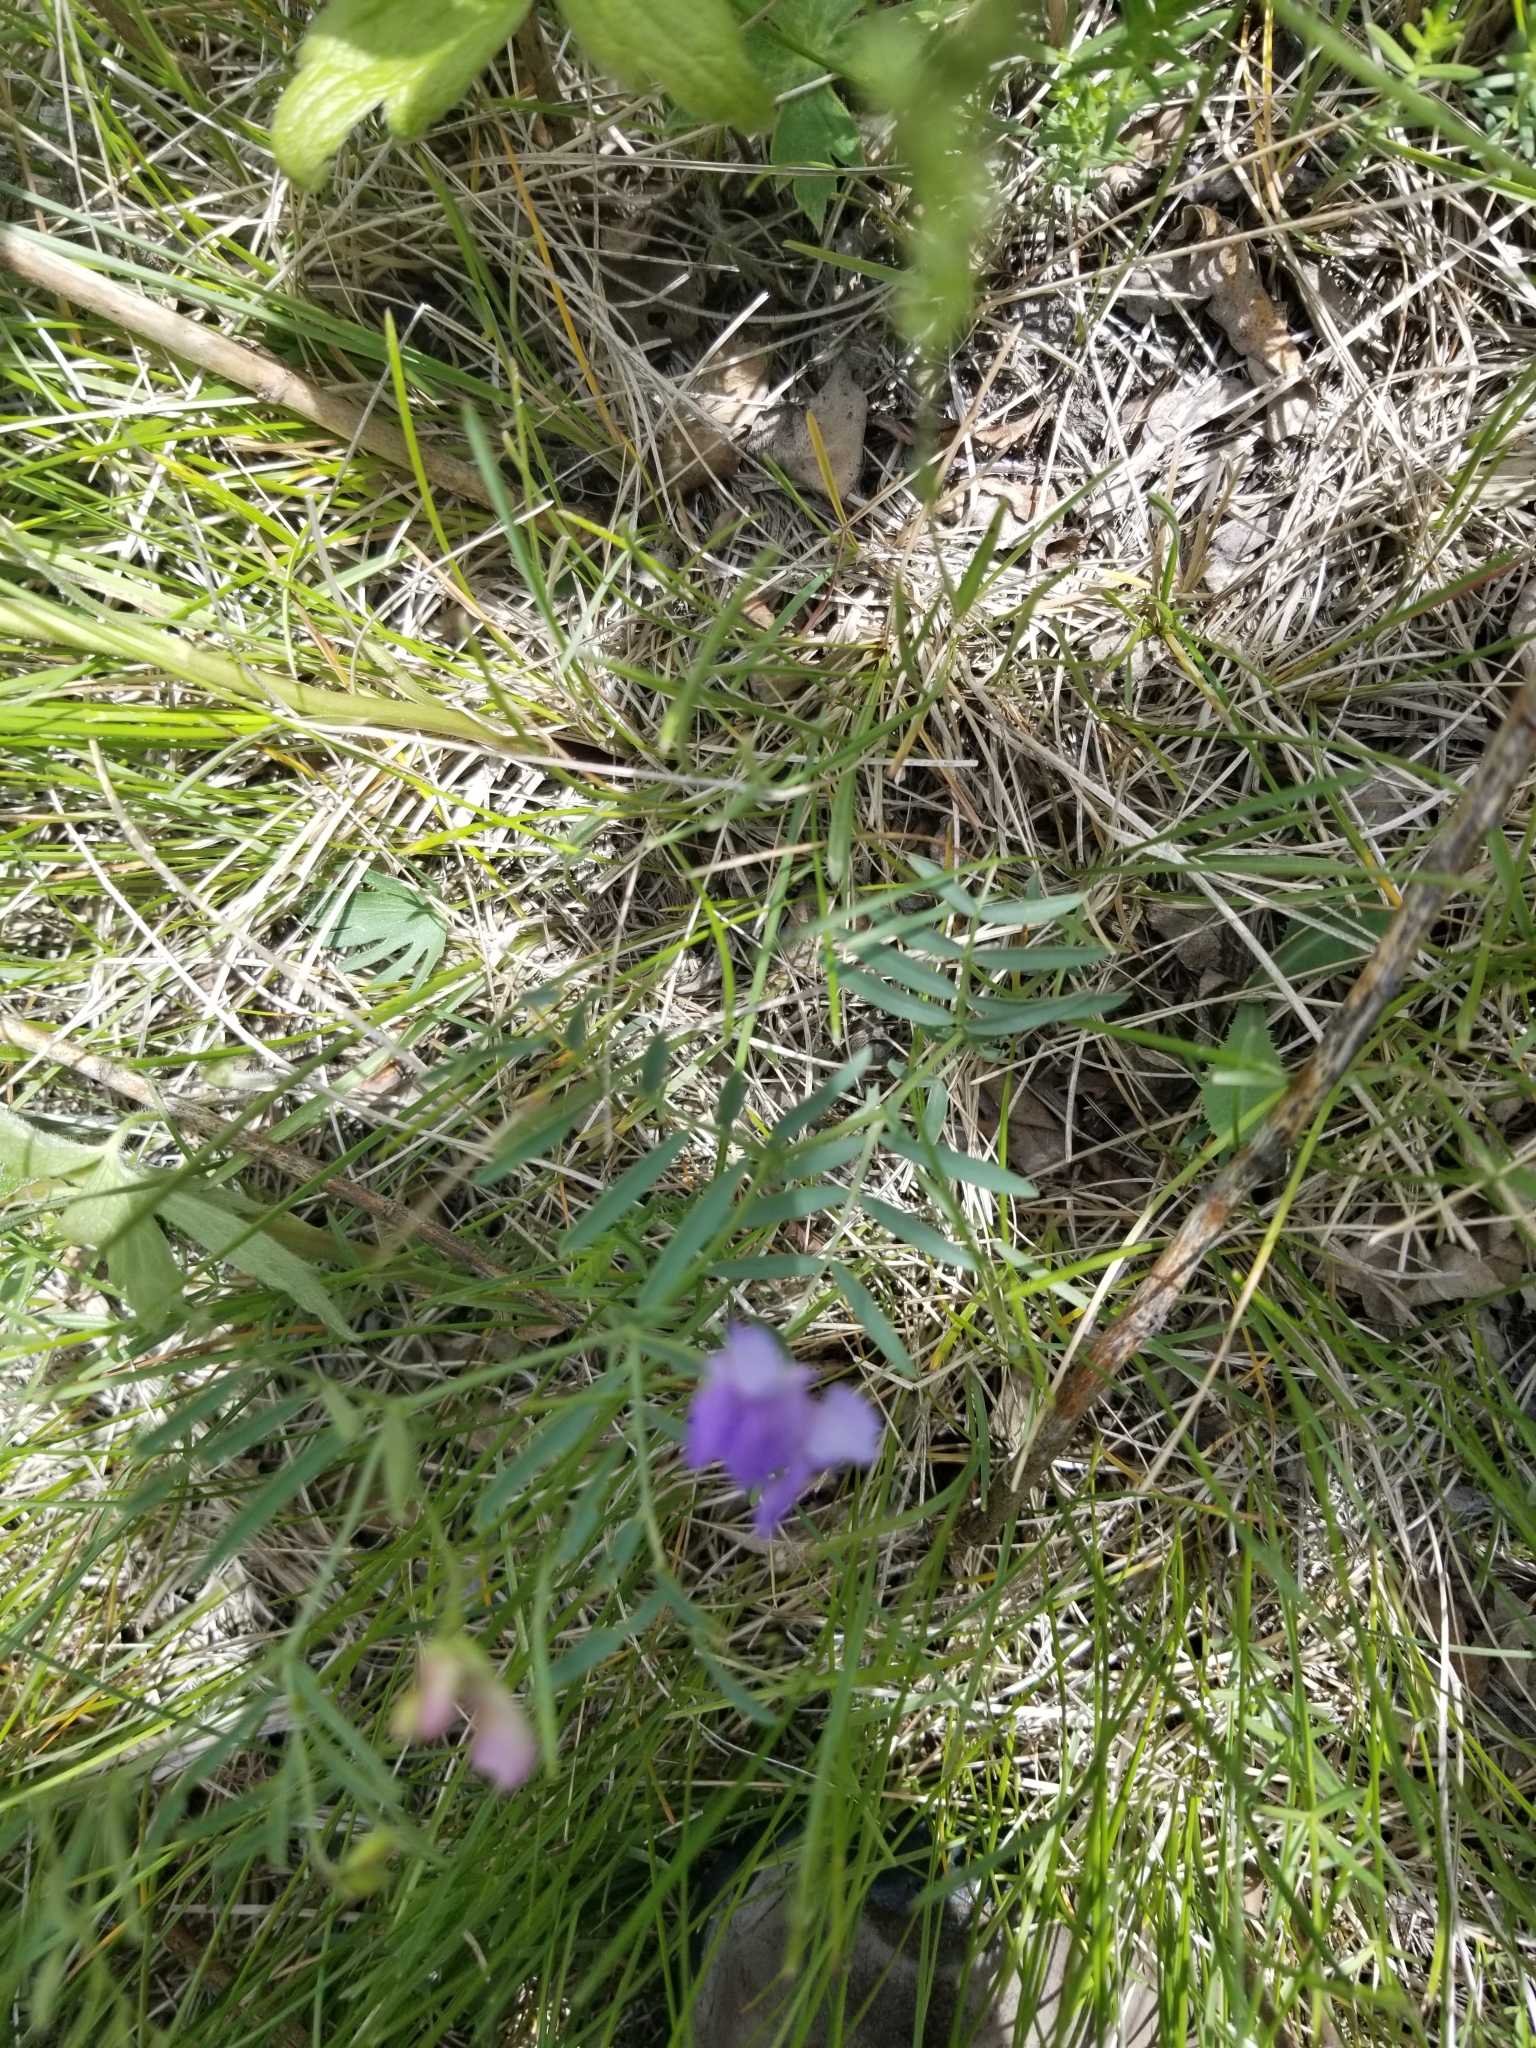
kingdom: Plantae
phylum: Tracheophyta
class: Magnoliopsida
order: Fabales
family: Fabaceae
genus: Vicia
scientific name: Vicia americana
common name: American vetch
